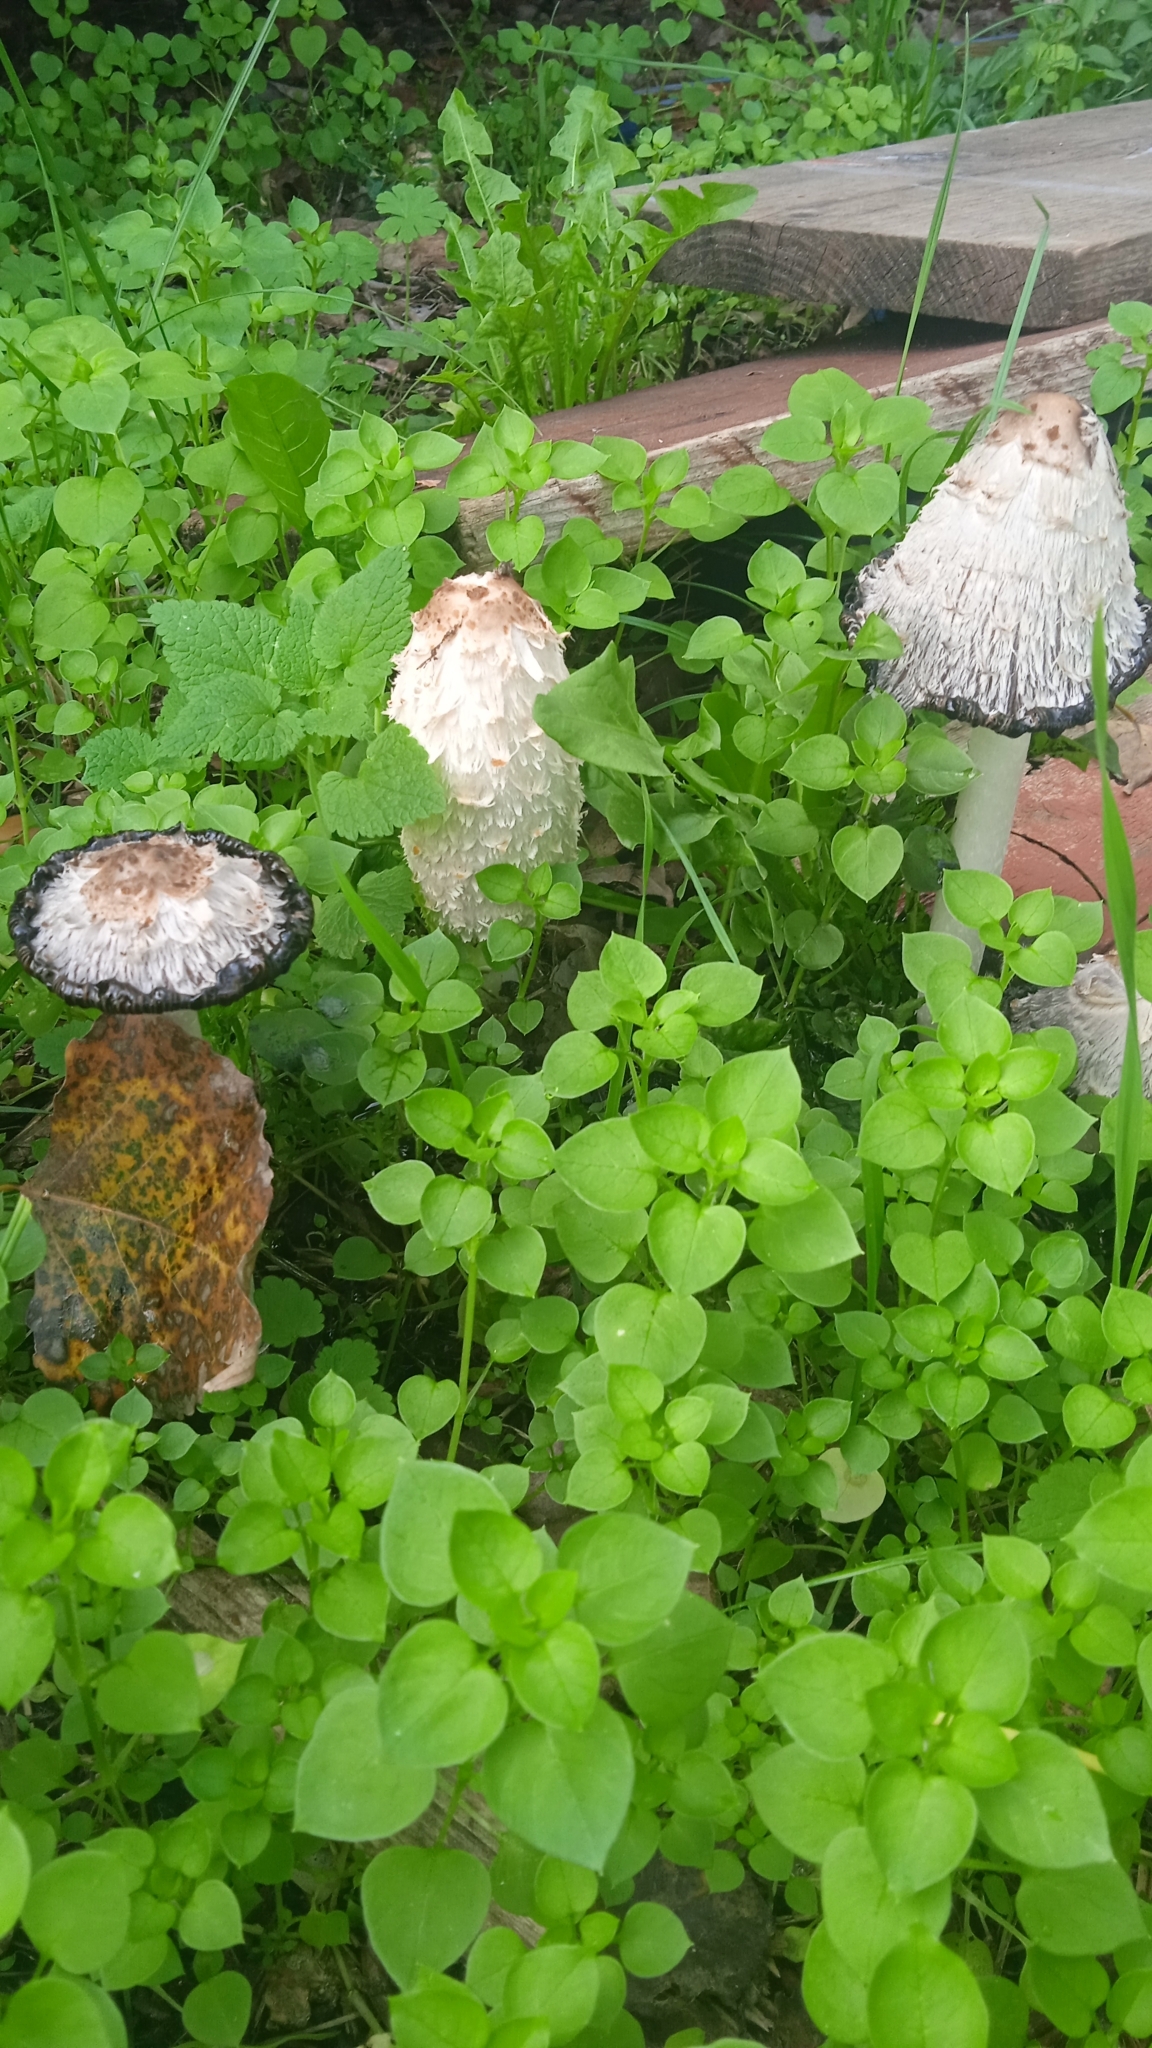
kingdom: Fungi
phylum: Basidiomycota
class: Agaricomycetes
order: Agaricales
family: Agaricaceae
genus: Coprinus
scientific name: Coprinus comatus
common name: Lawyer's wig
